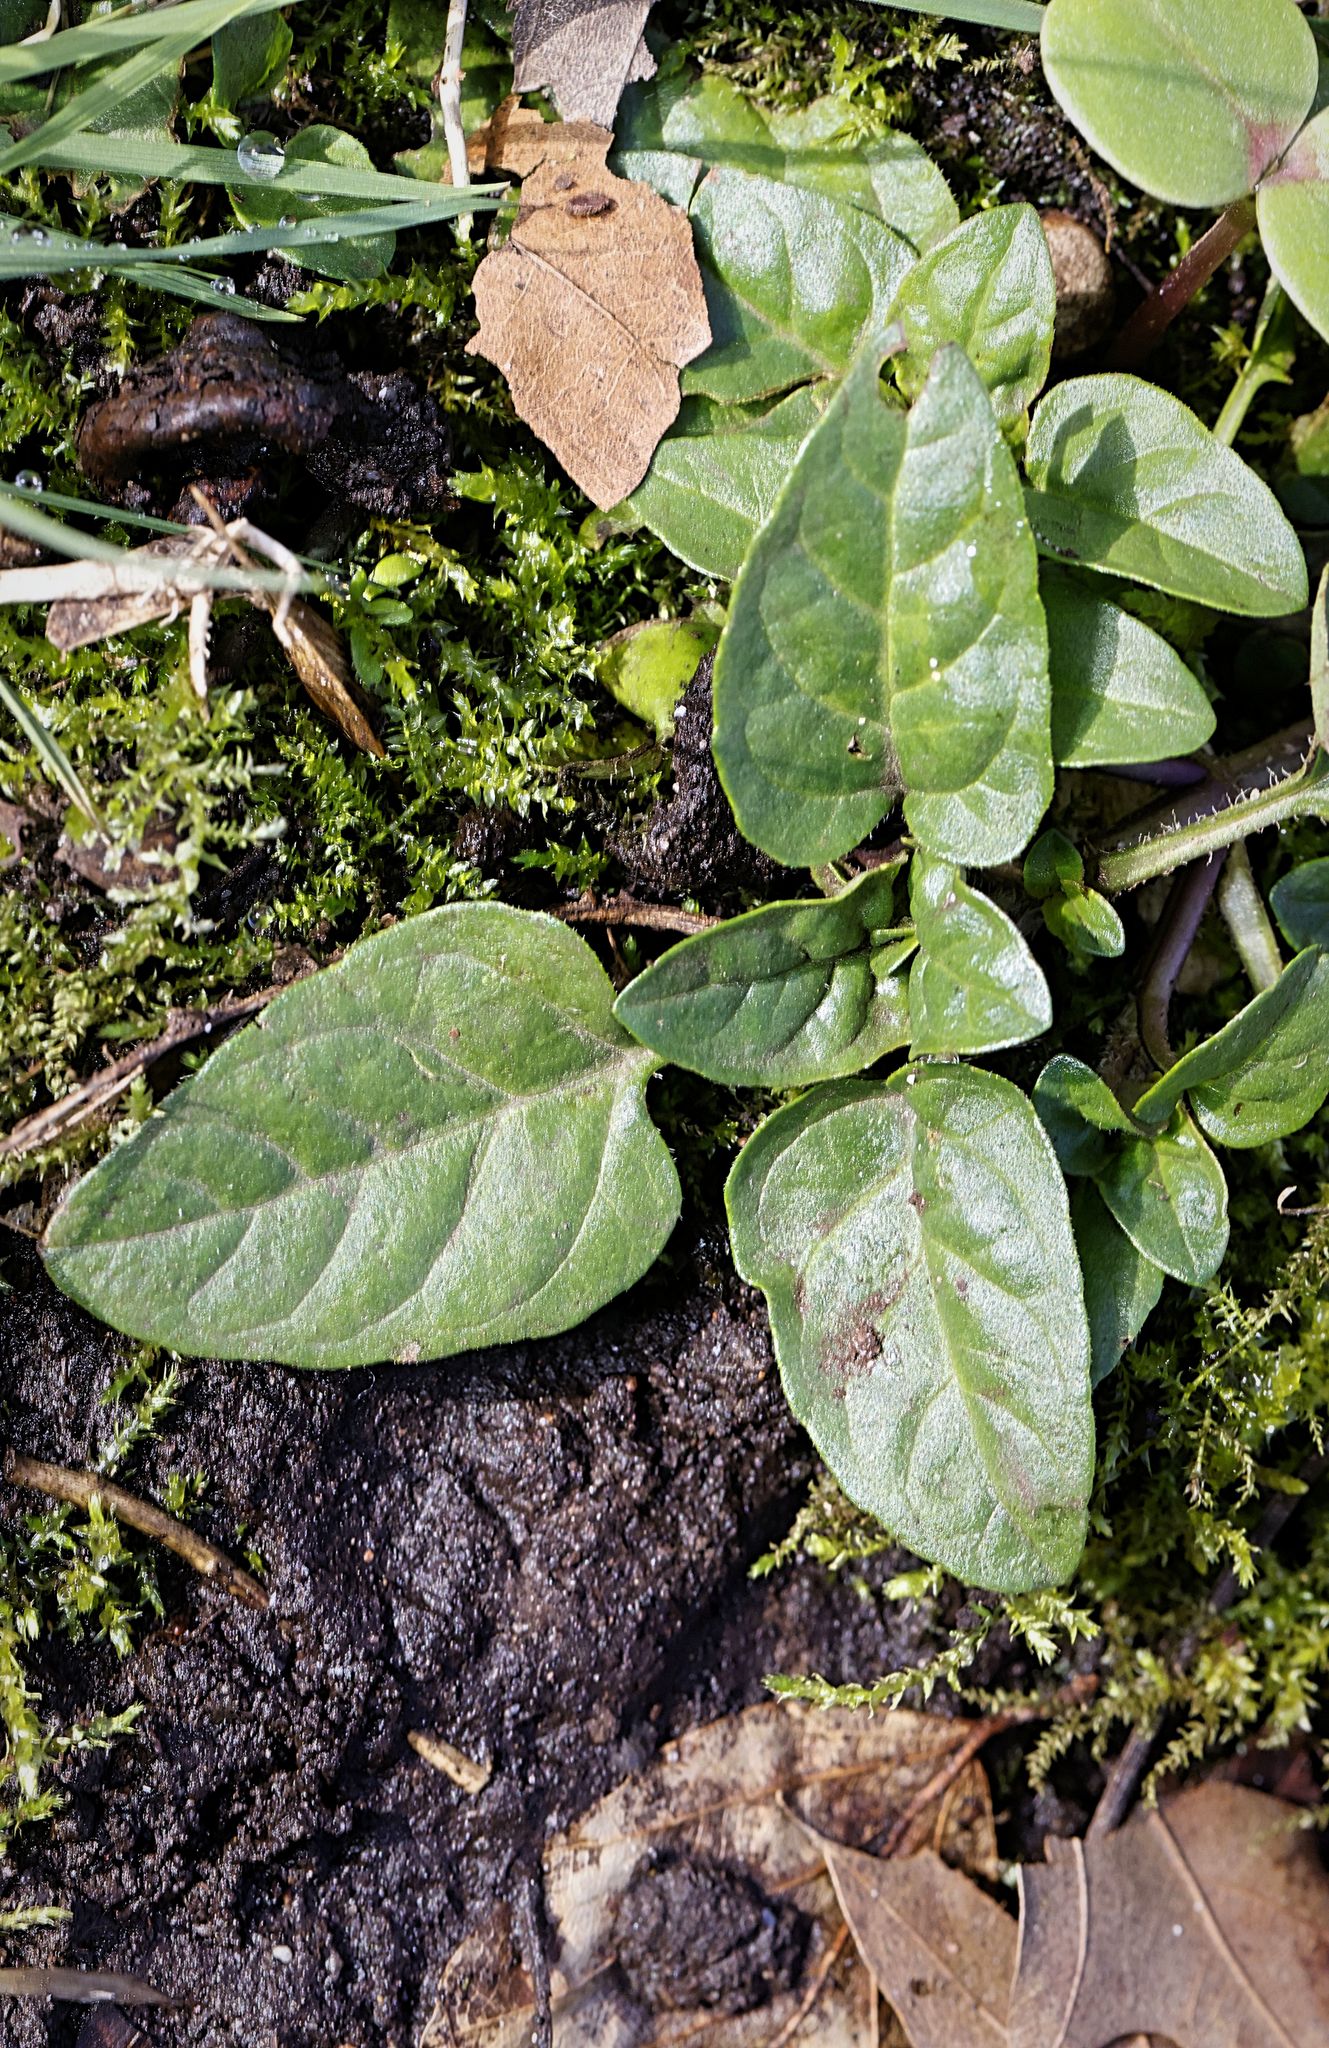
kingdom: Plantae
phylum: Tracheophyta
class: Magnoliopsida
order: Lamiales
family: Lamiaceae
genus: Prunella
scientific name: Prunella vulgaris
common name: Heal-all
